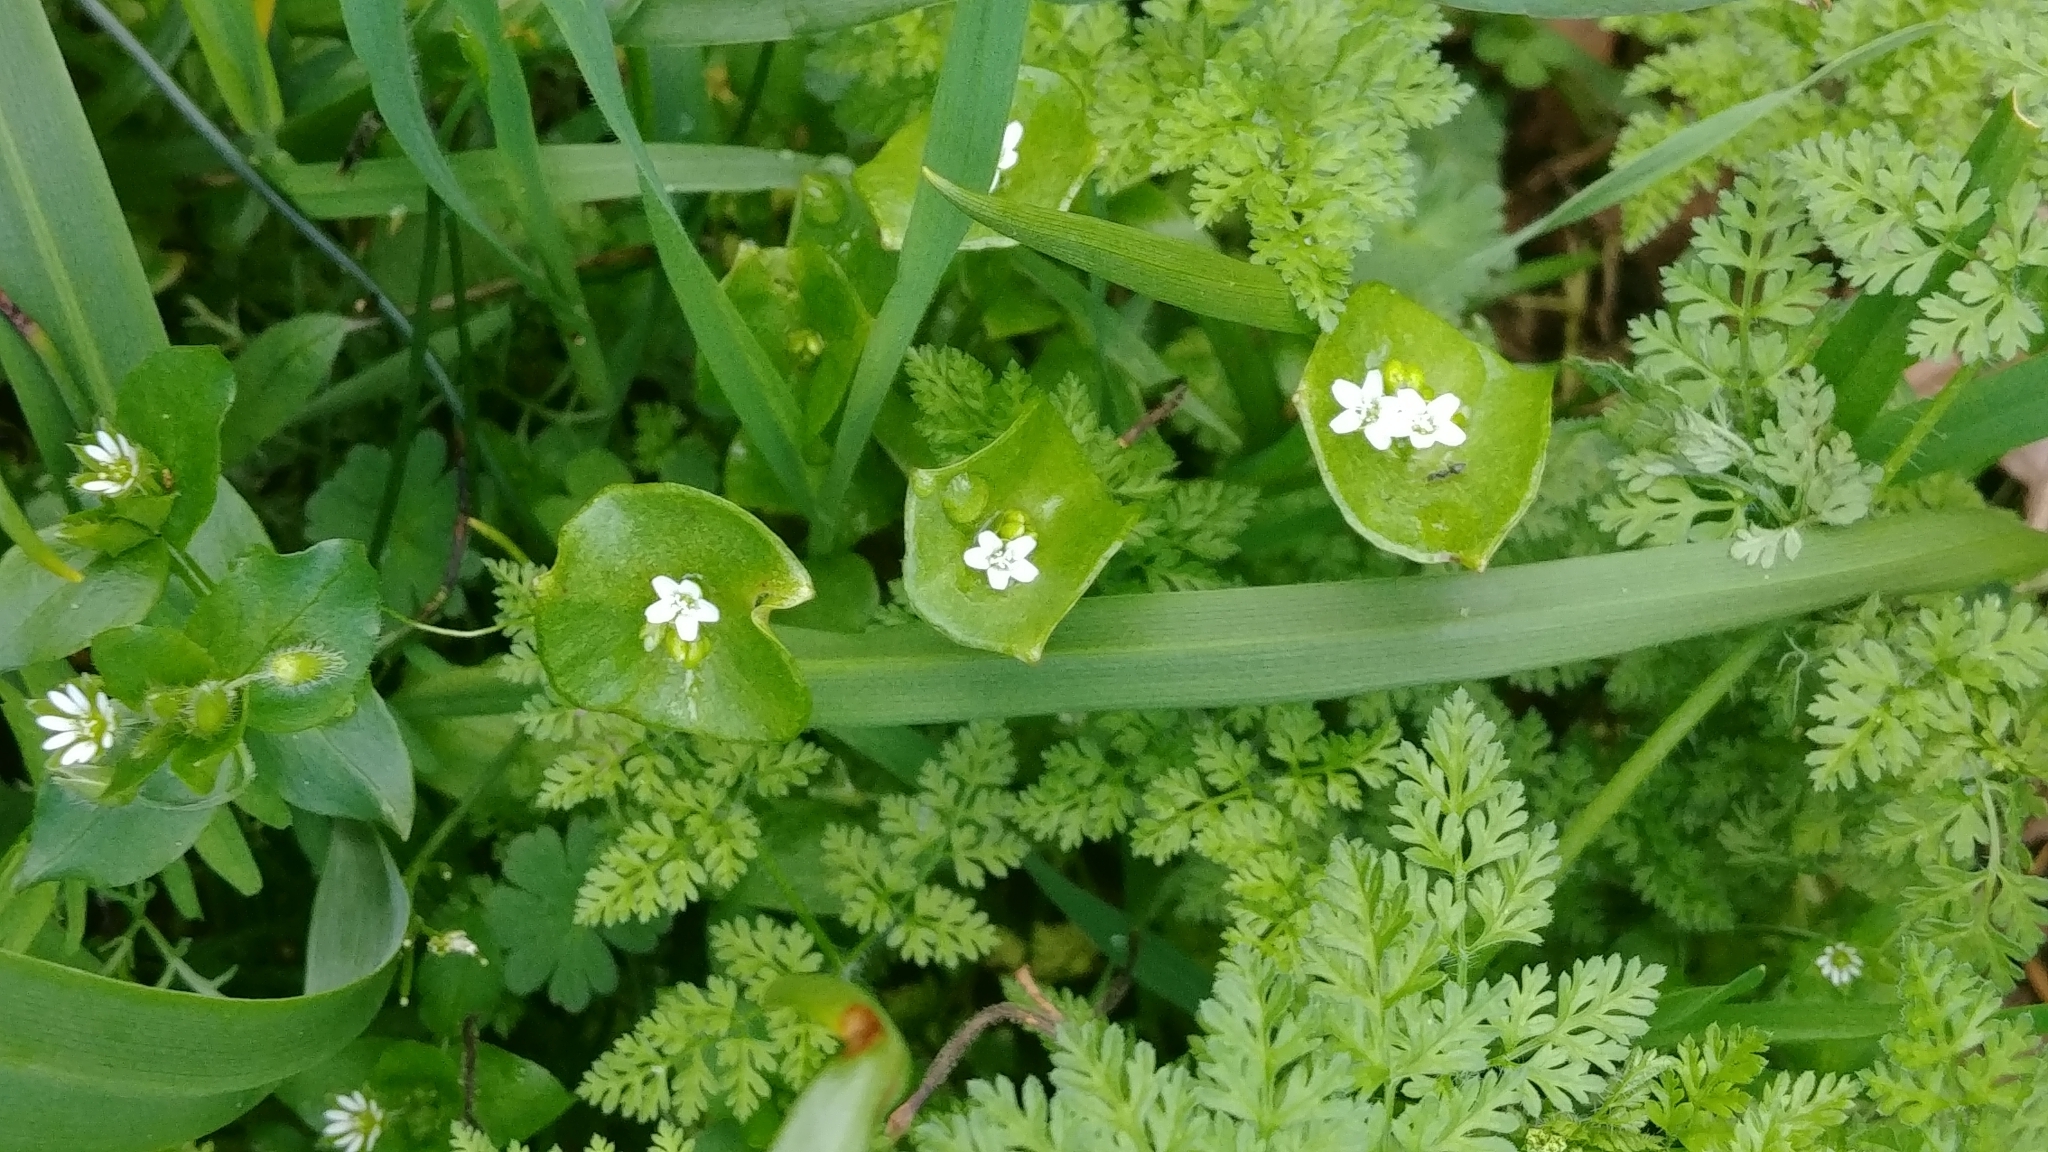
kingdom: Plantae
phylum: Tracheophyta
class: Magnoliopsida
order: Caryophyllales
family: Montiaceae
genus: Claytonia
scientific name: Claytonia perfoliata
